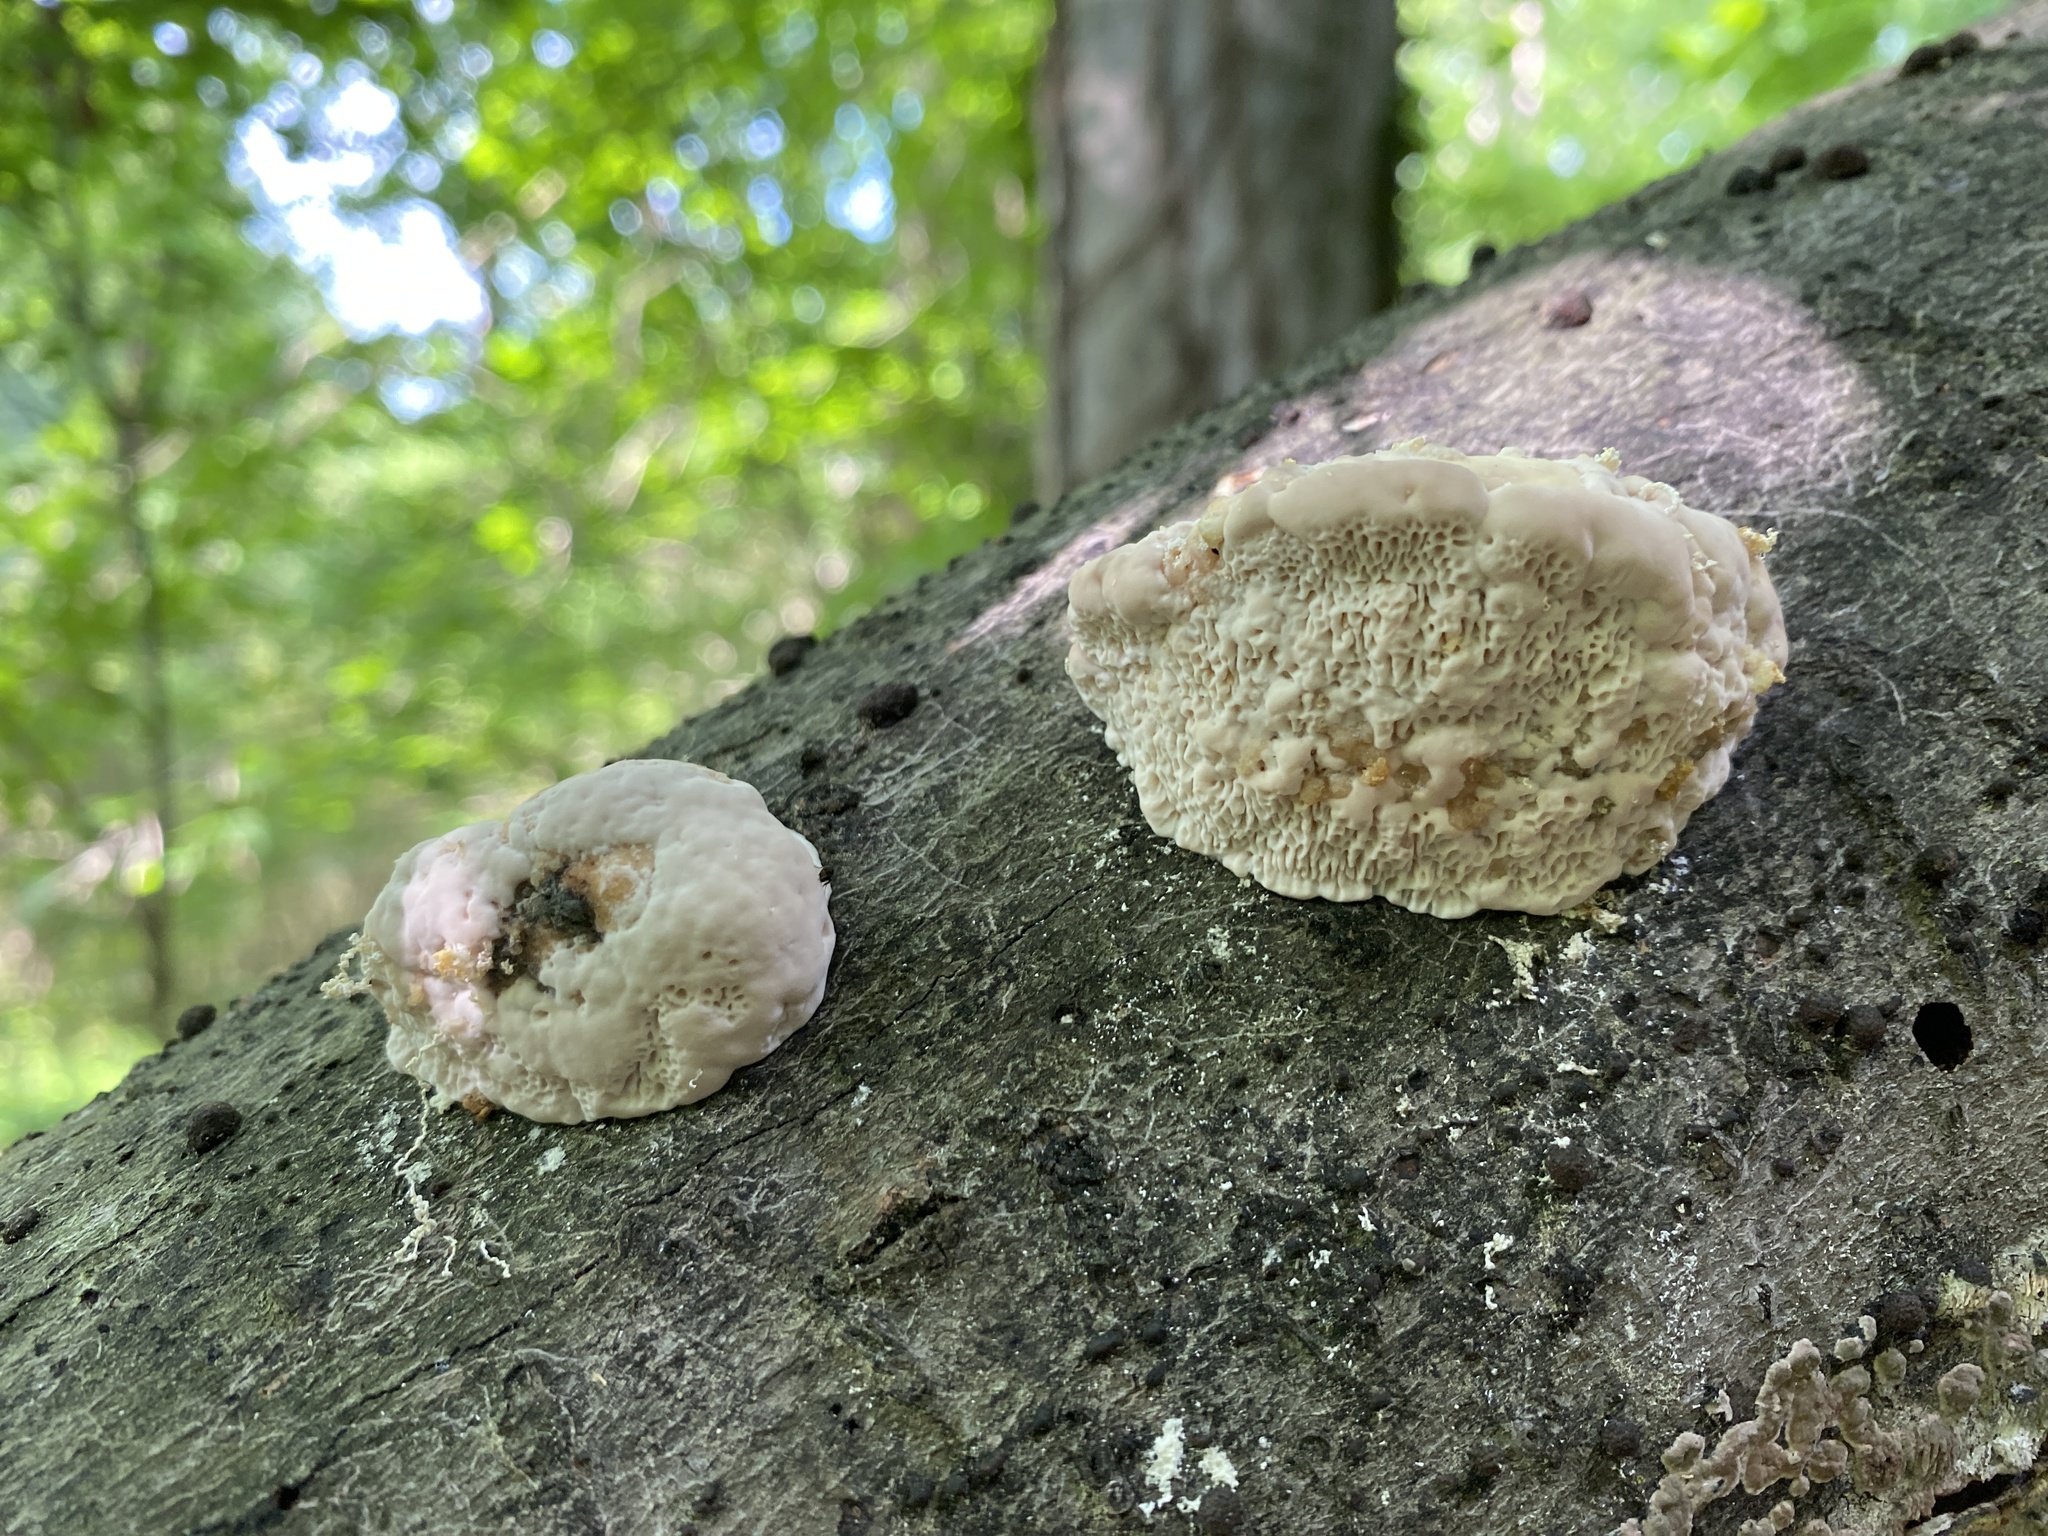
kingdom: Fungi
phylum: Basidiomycota
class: Agaricomycetes
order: Polyporales
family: Polyporaceae
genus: Trametes
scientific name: Trametes gibbosa
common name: Lumpy bracket
